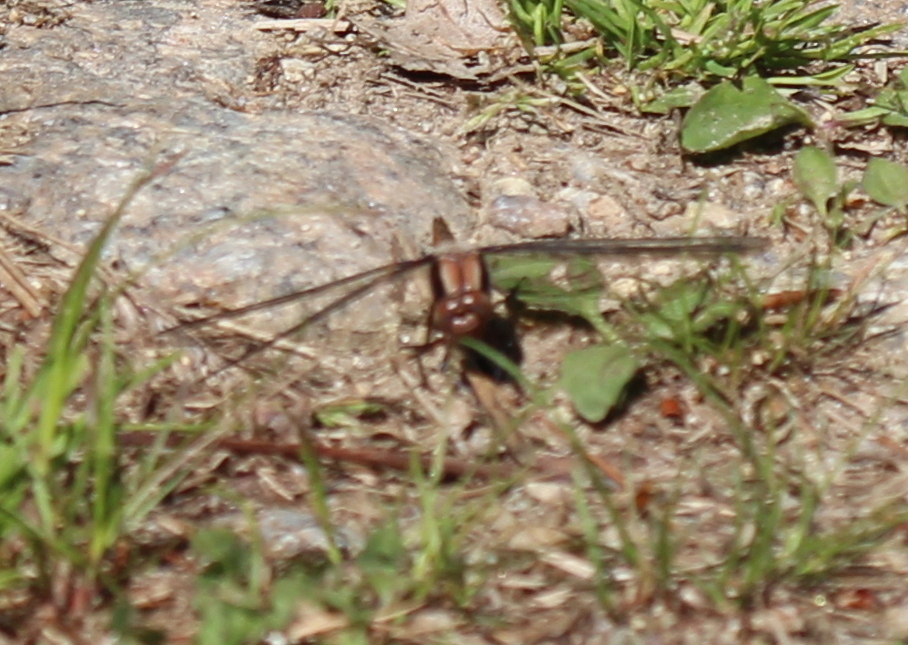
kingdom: Animalia
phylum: Arthropoda
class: Insecta
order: Odonata
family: Libellulidae
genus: Ladona
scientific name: Ladona julia
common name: Chalk-fronted corporal
